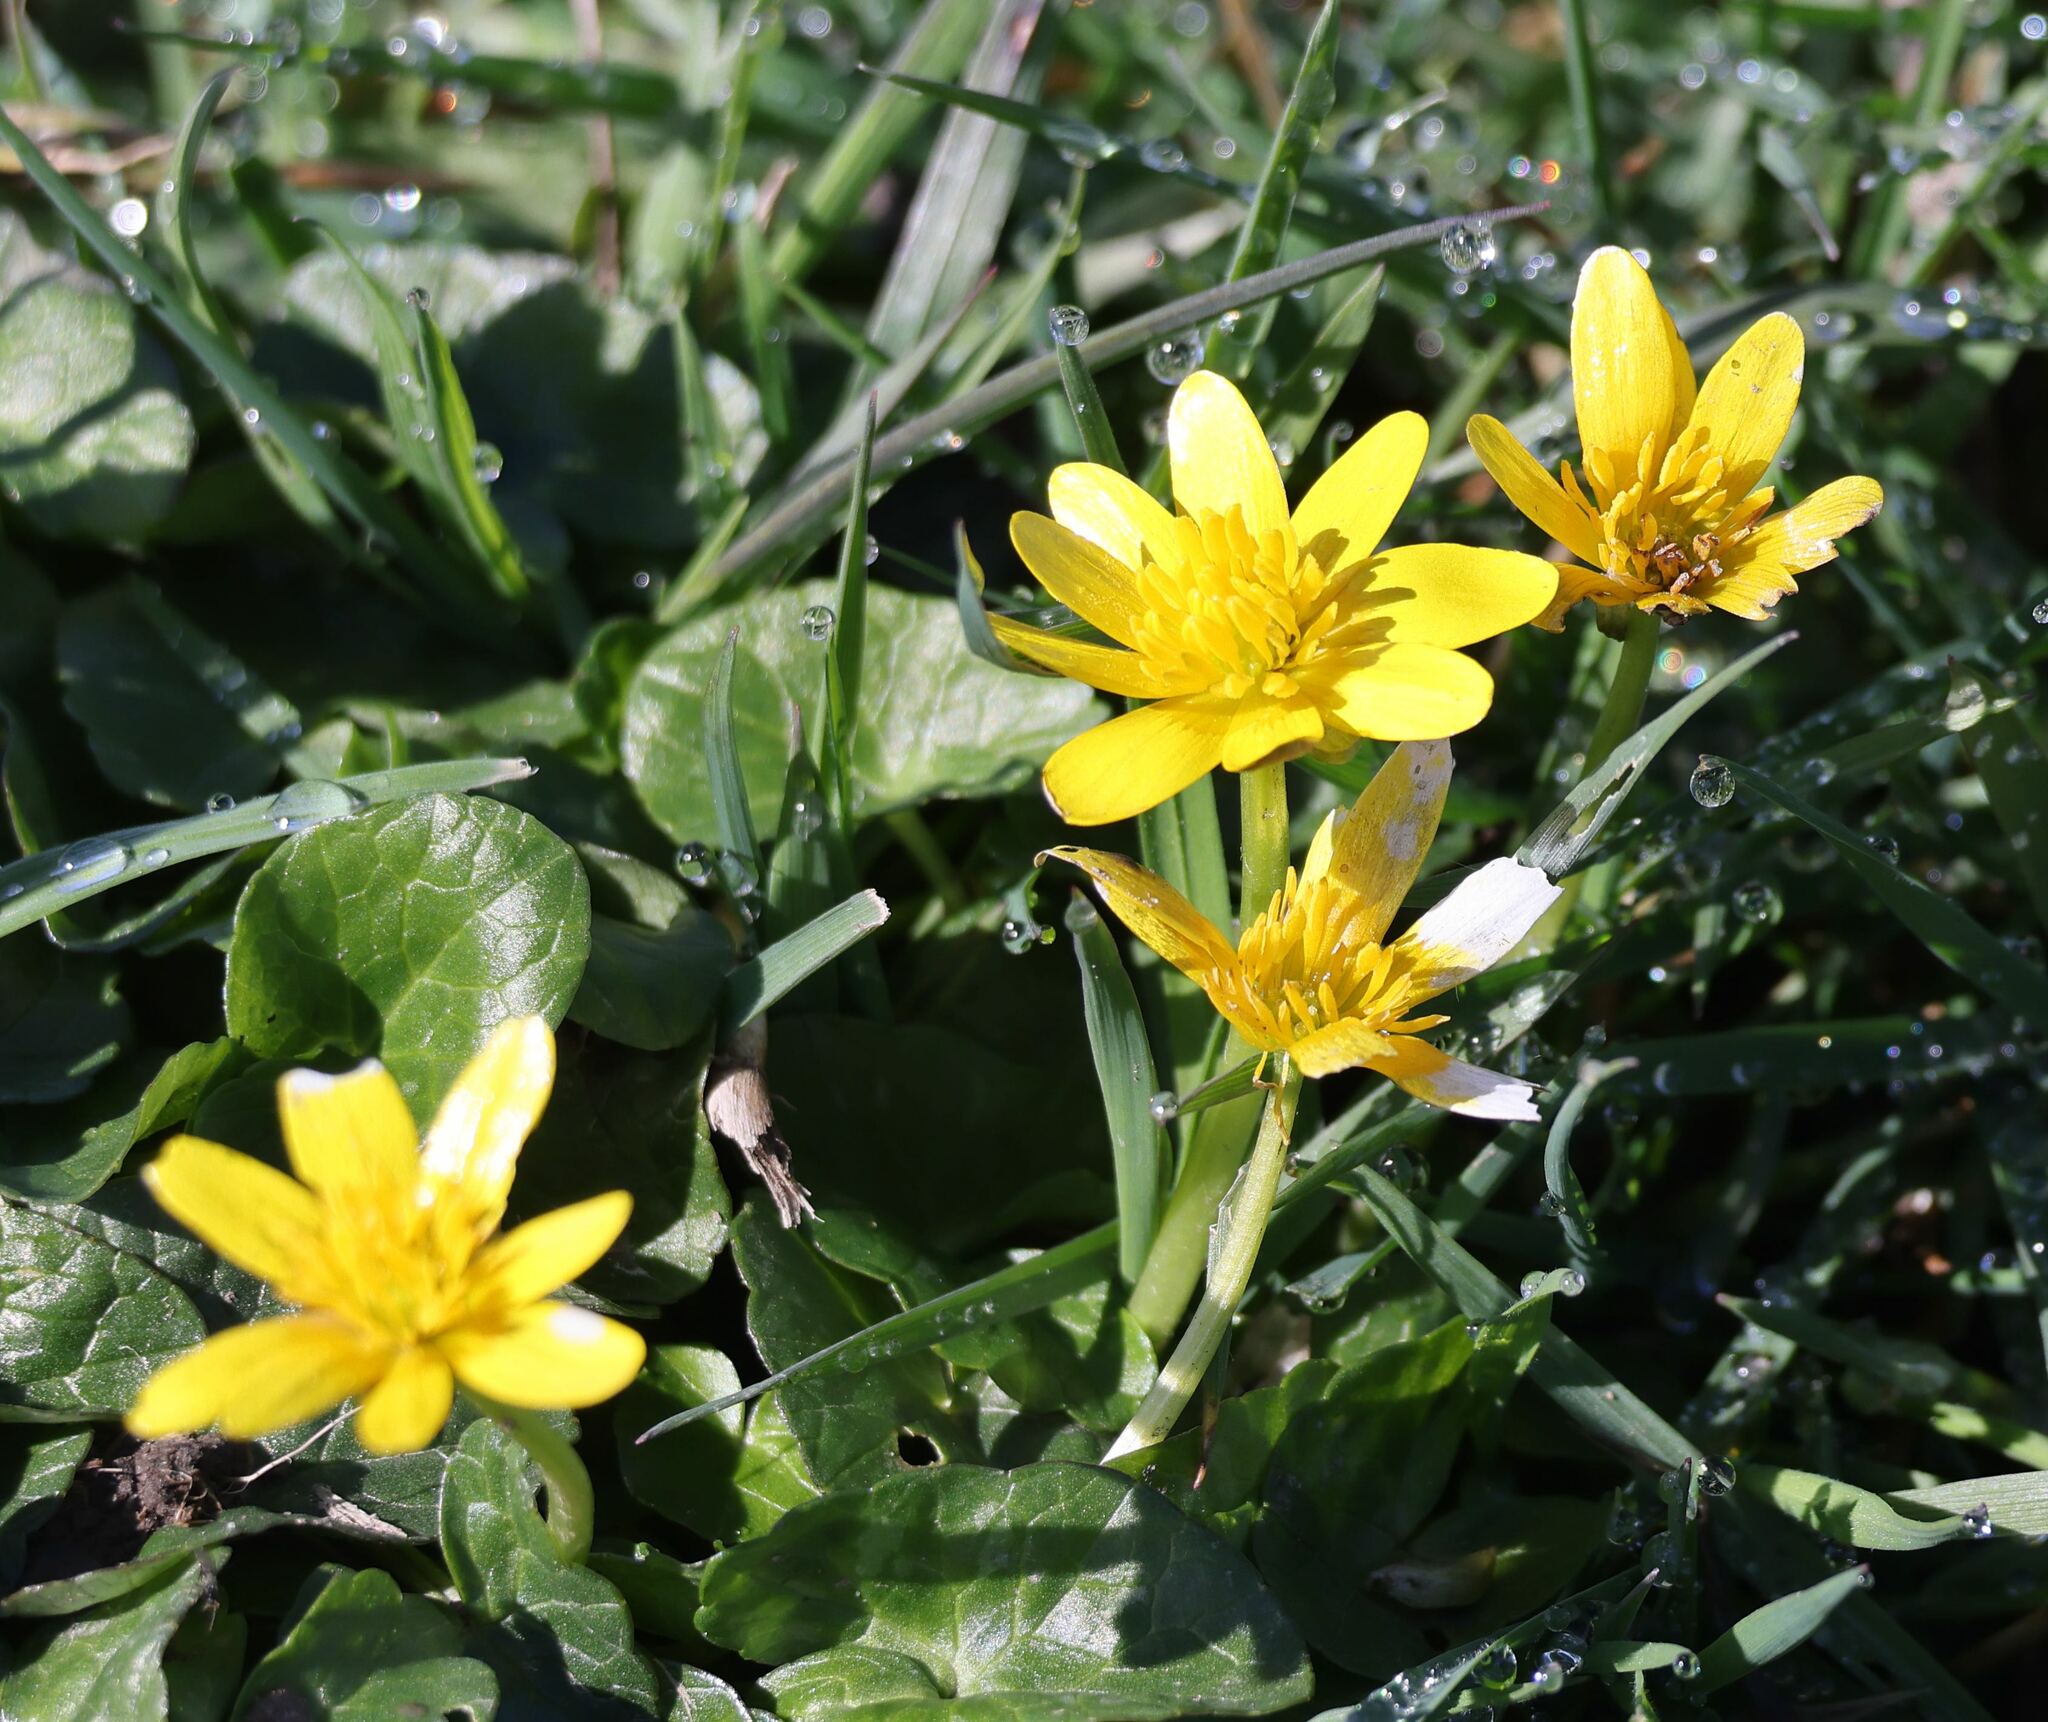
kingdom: Plantae
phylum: Tracheophyta
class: Magnoliopsida
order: Ranunculales
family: Ranunculaceae
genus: Ficaria
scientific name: Ficaria verna
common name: Lesser celandine
